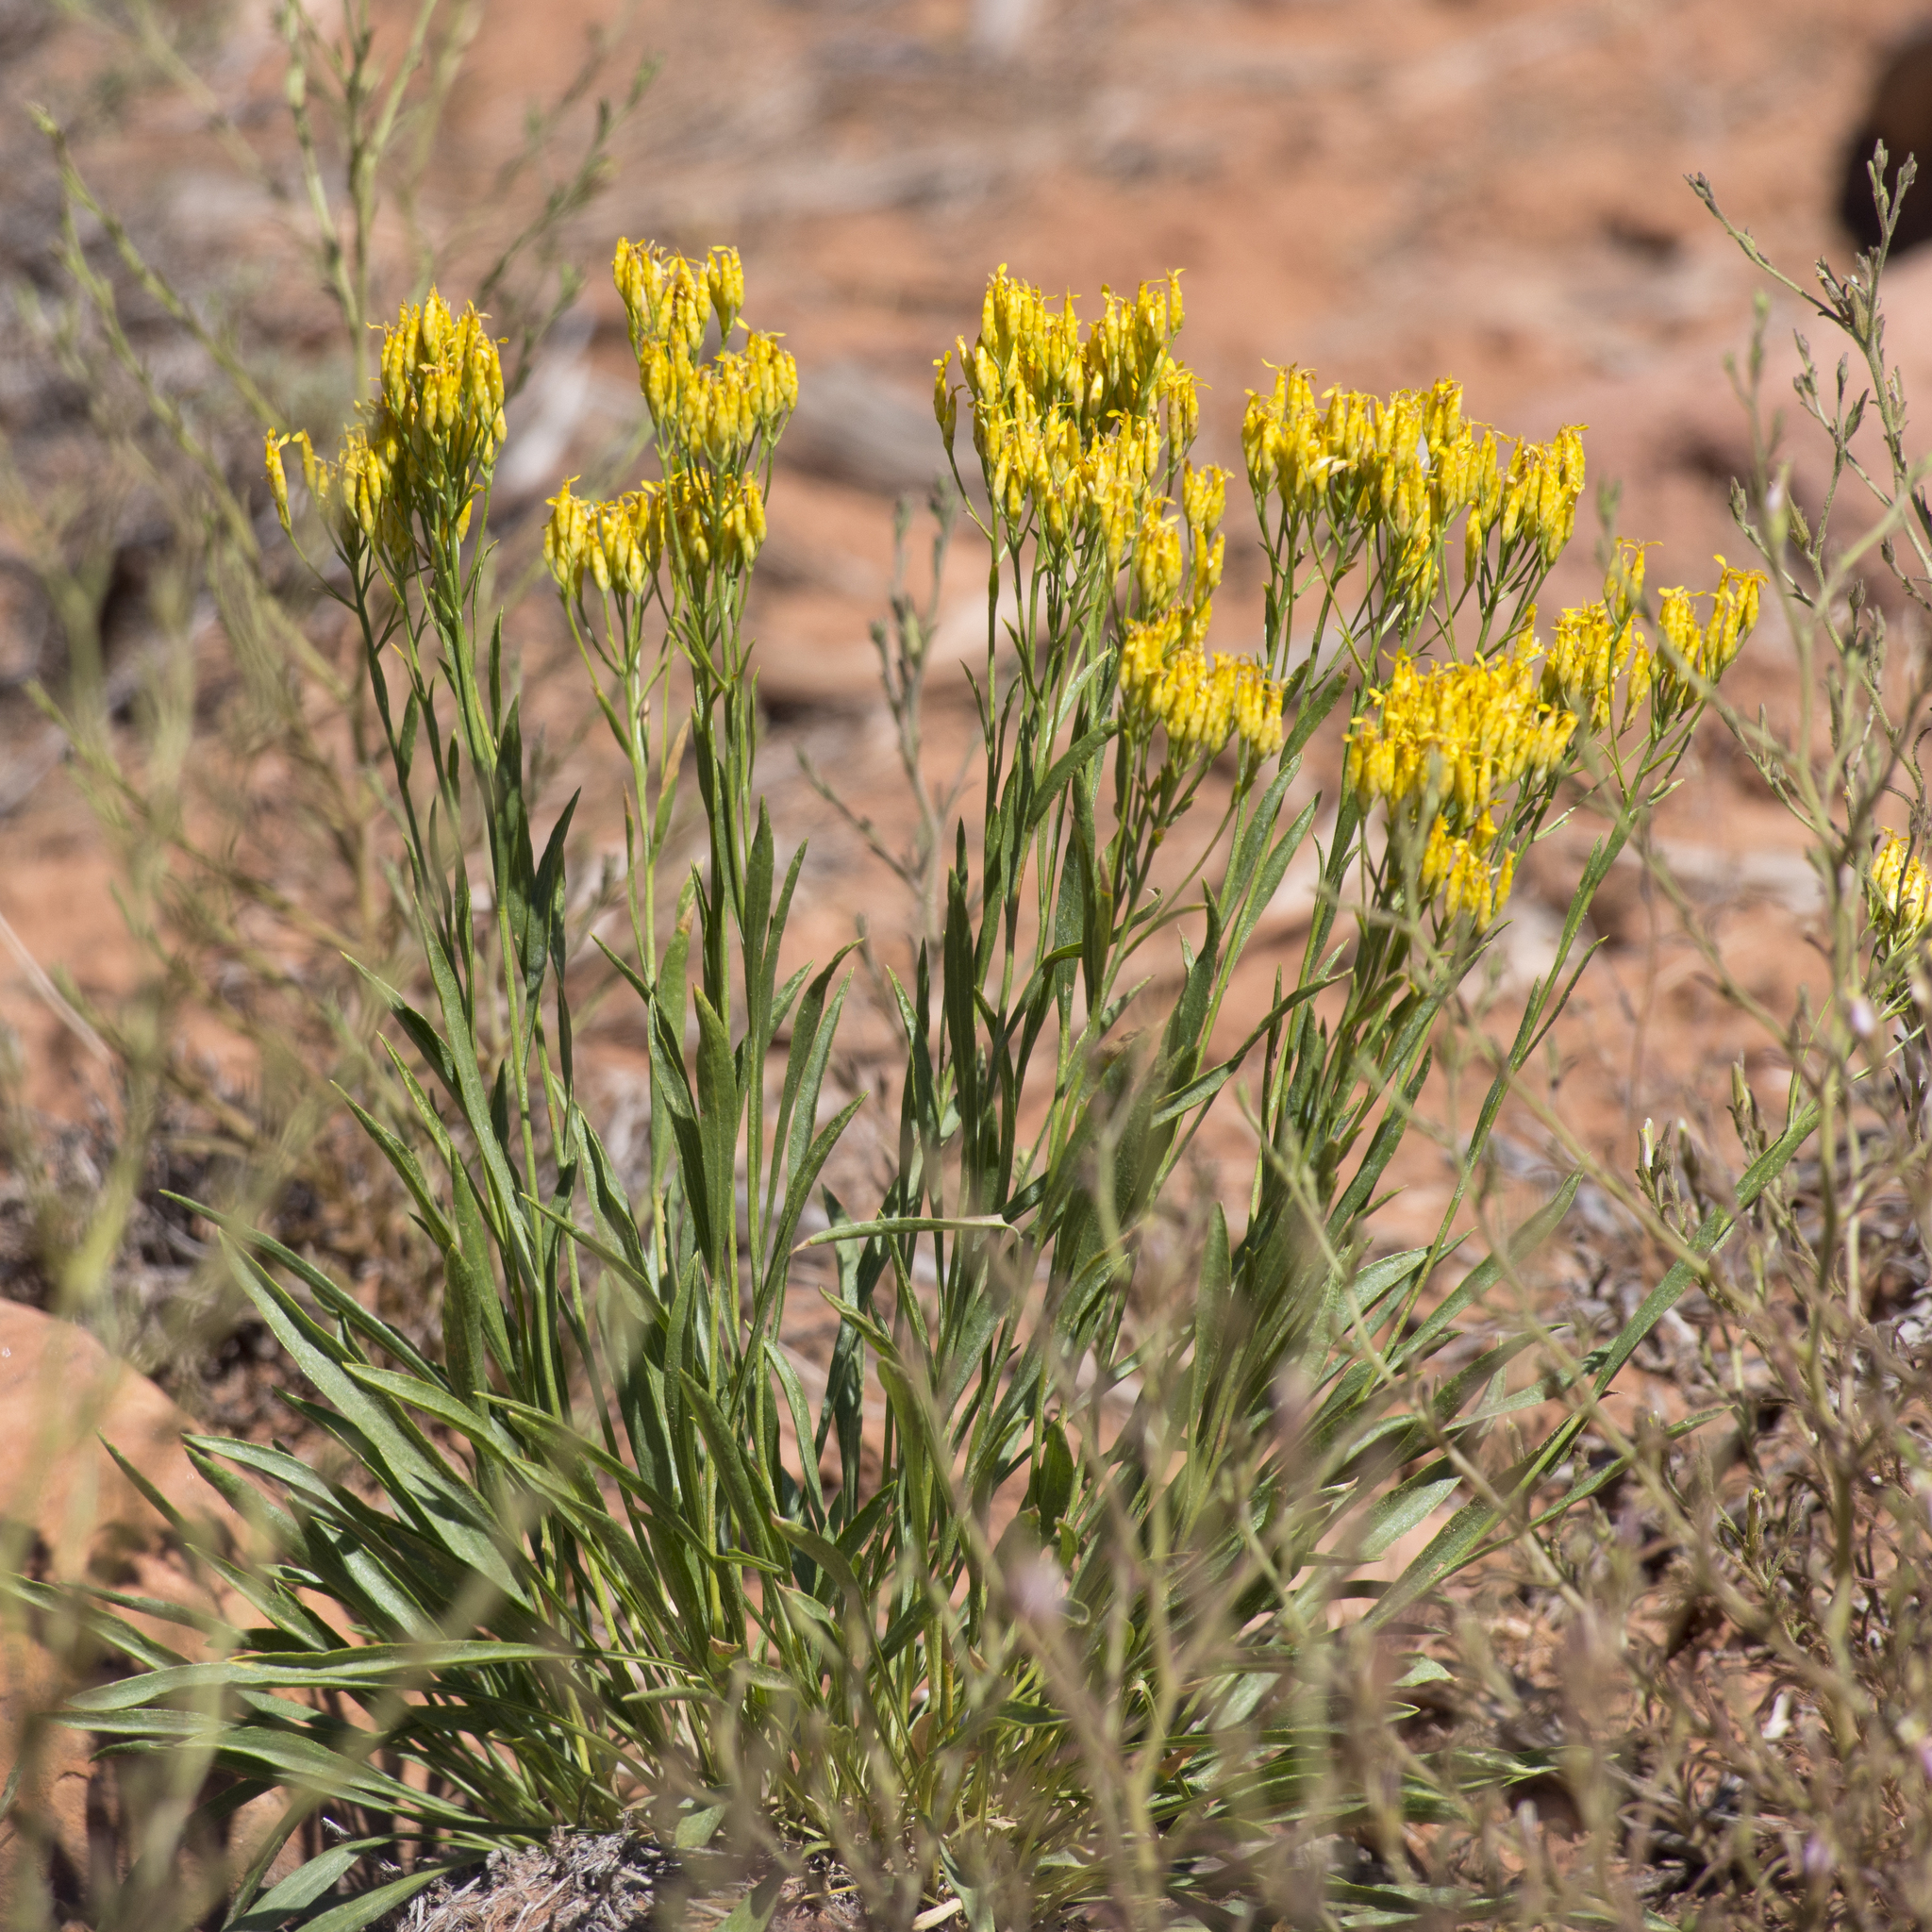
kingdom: Plantae
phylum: Tracheophyta
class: Magnoliopsida
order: Asterales
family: Asteraceae
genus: Petradoria
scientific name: Petradoria pumila
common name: Rock-goldenrod
